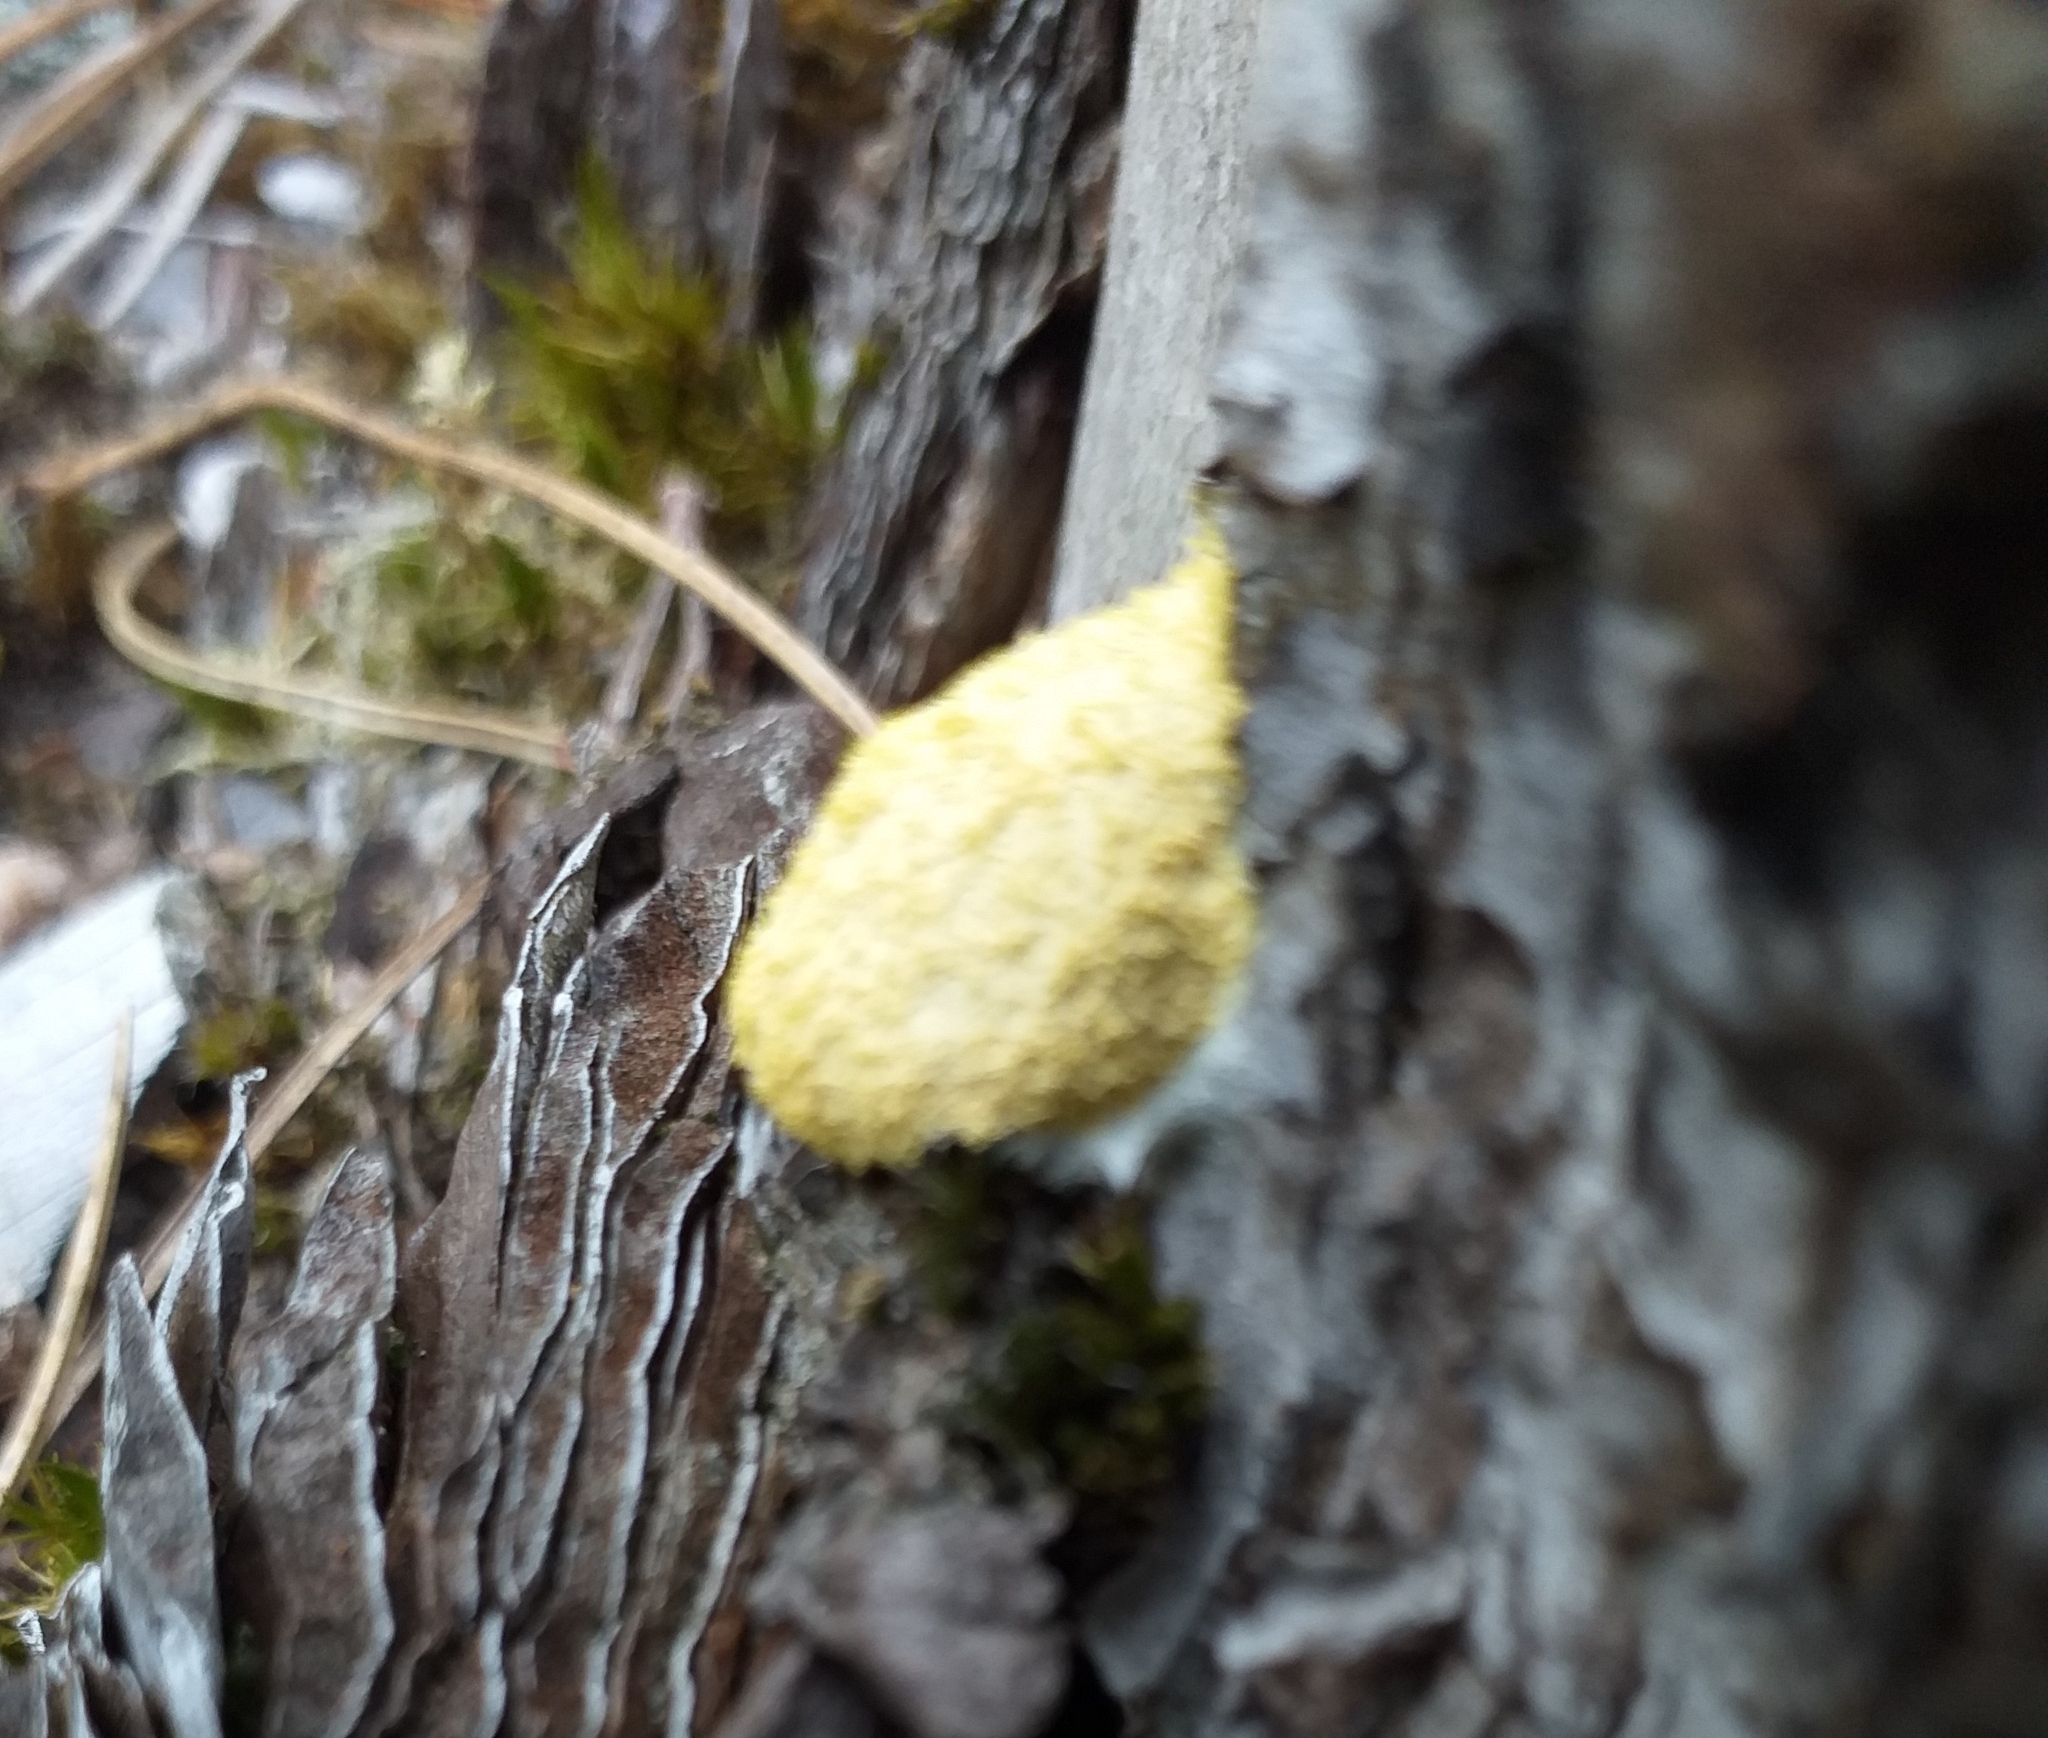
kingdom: Protozoa
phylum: Mycetozoa
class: Myxomycetes
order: Physarales
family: Physaraceae
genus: Fuligo
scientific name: Fuligo septica
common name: Dog vomit slime mold
